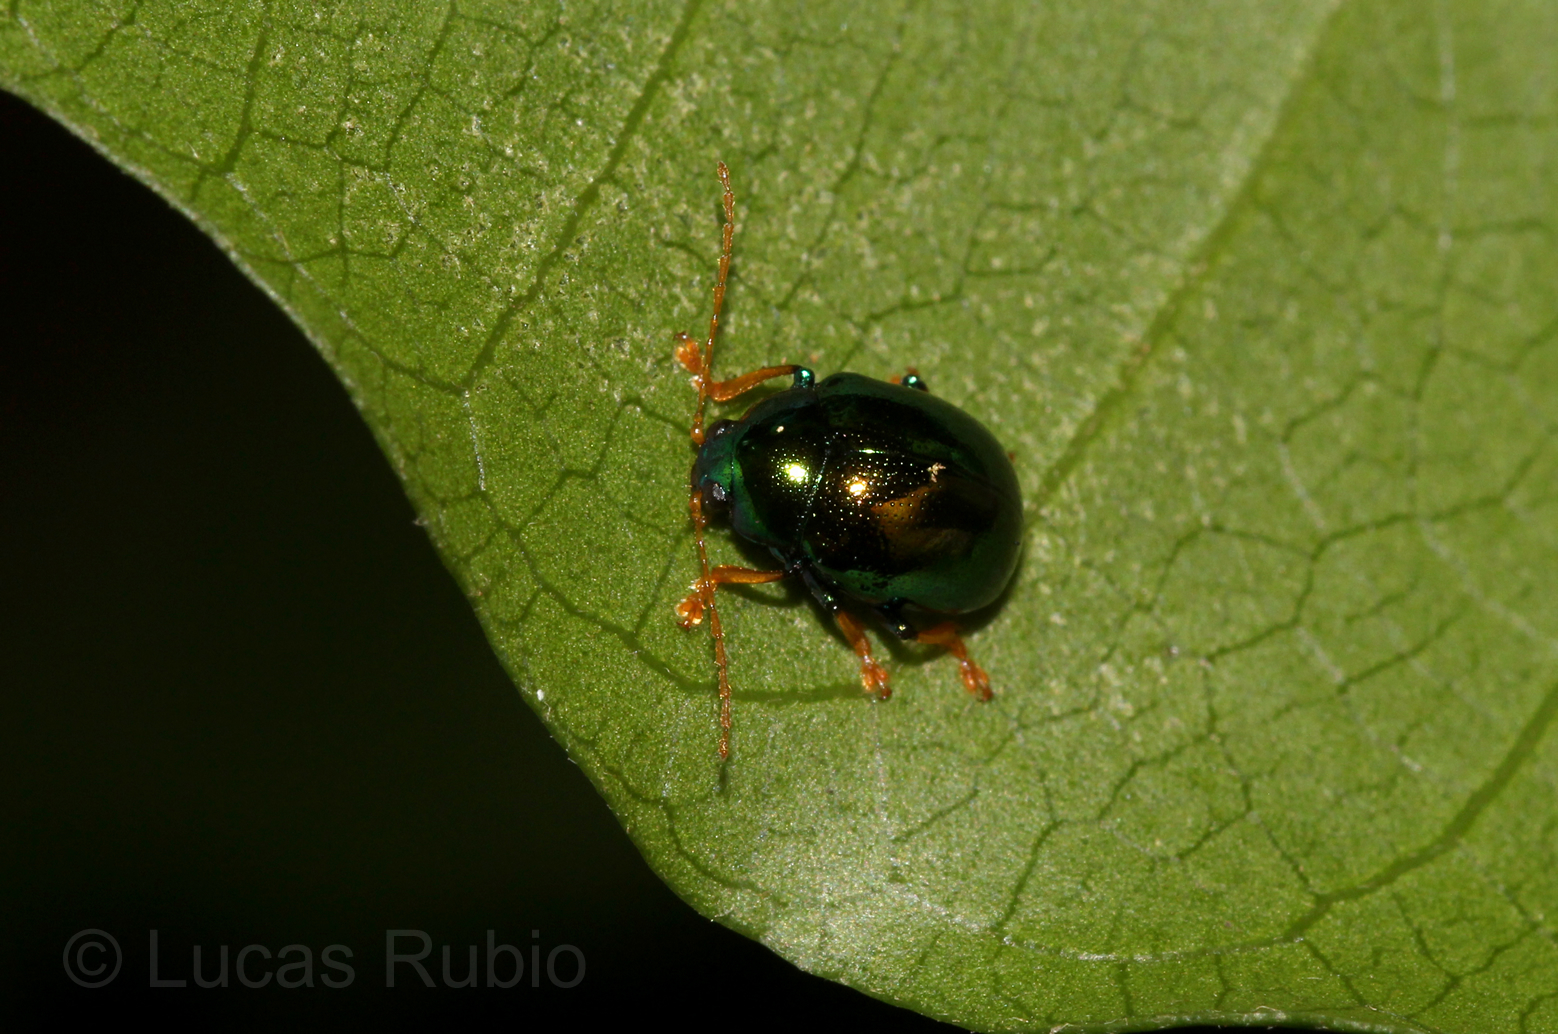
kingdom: Animalia
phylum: Arthropoda
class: Insecta
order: Coleoptera
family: Chrysomelidae
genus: Colaspoides
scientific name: Colaspoides
